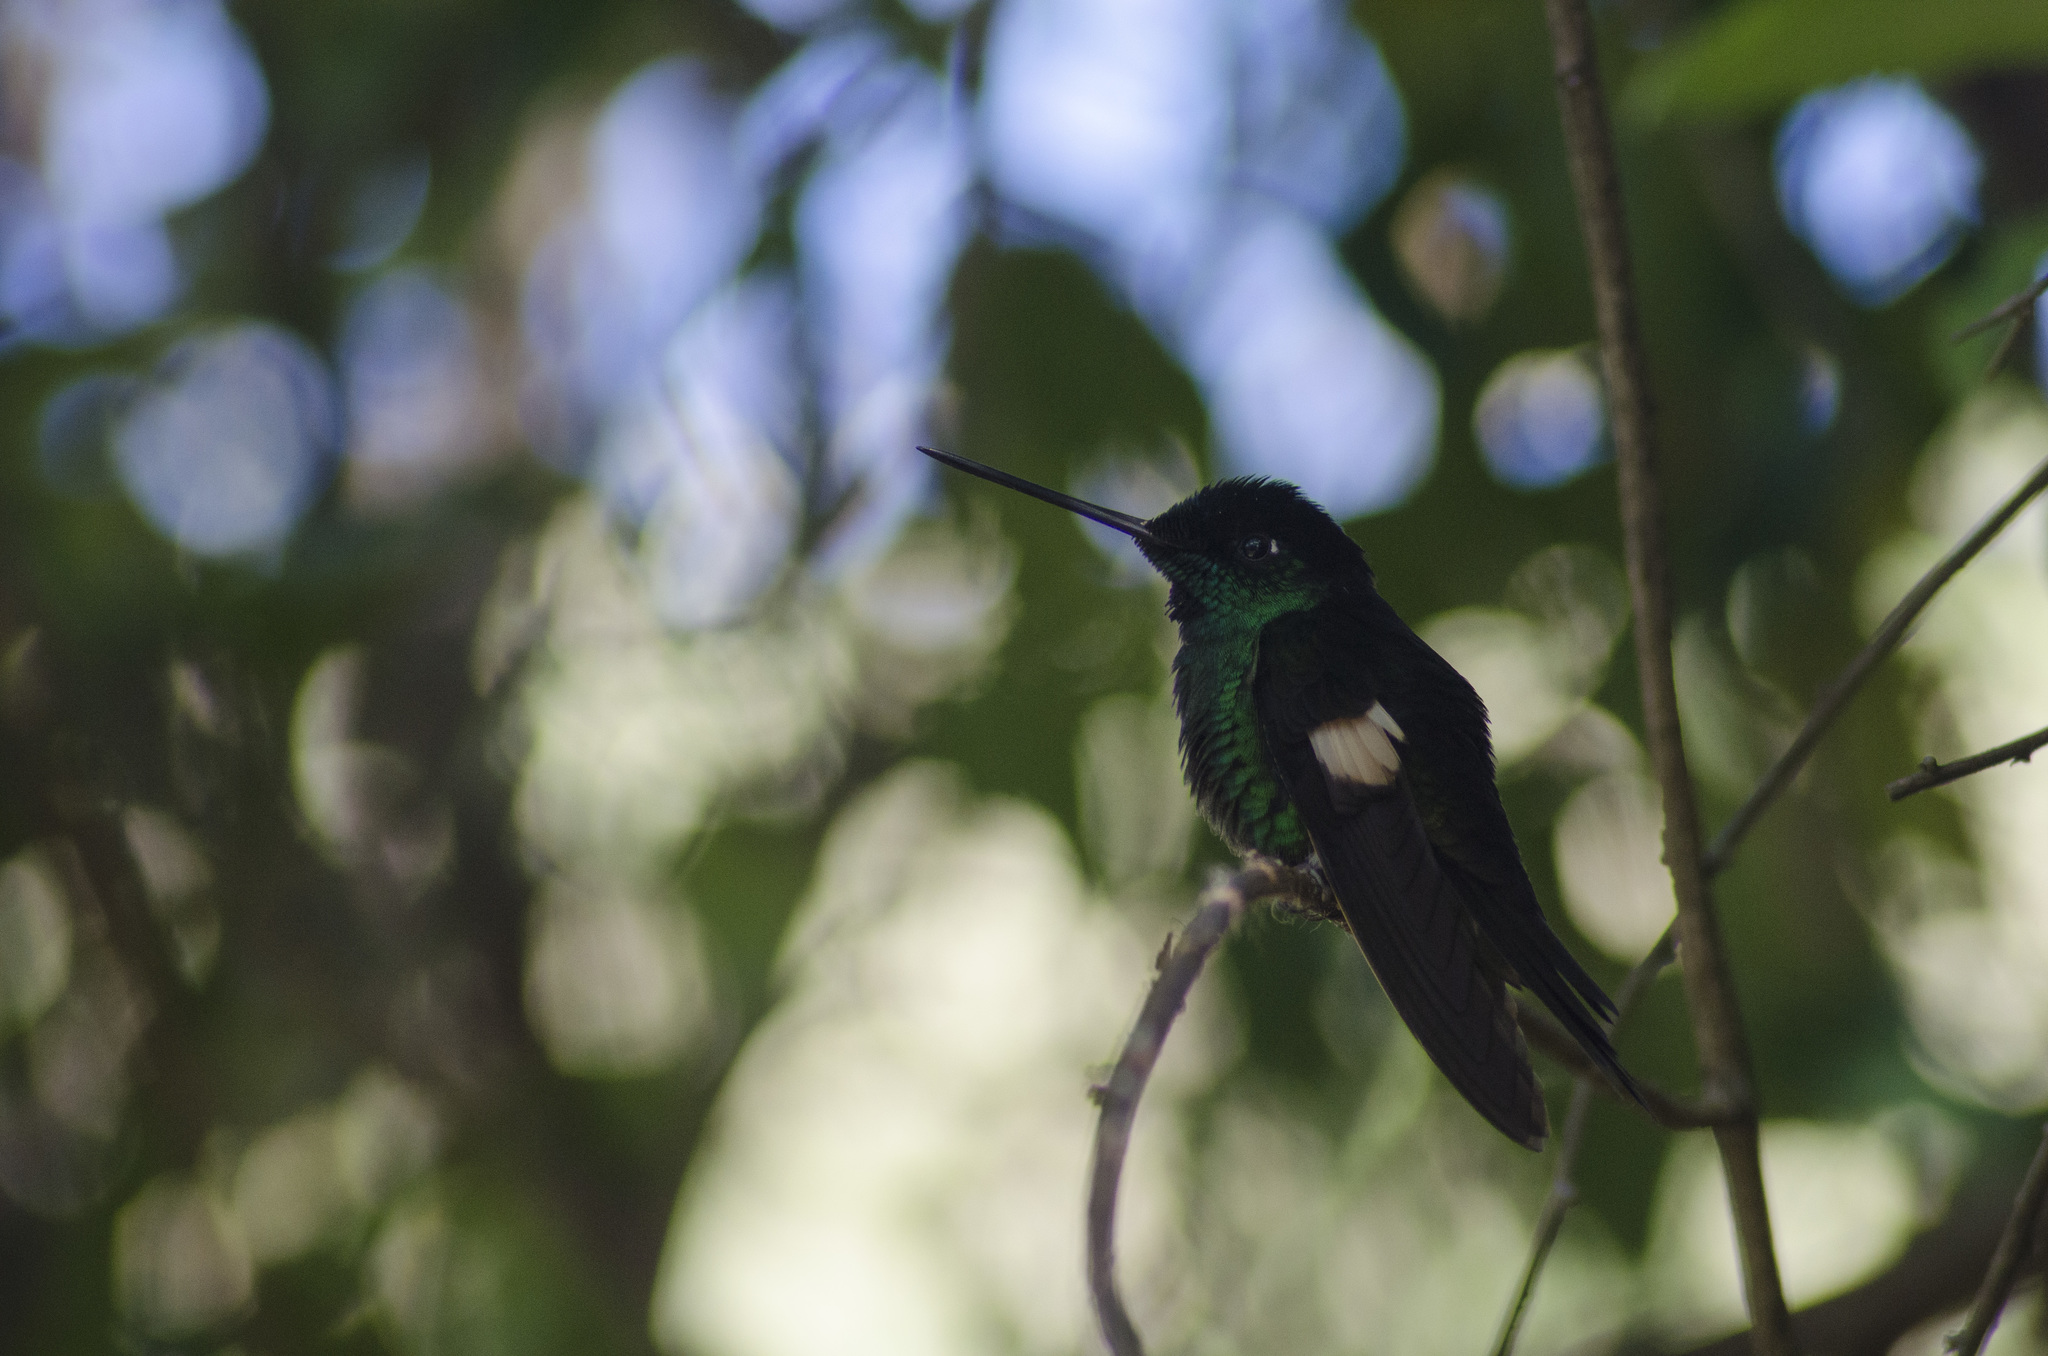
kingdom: Animalia
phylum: Chordata
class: Aves
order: Apodiformes
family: Trochilidae
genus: Coeligena
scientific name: Coeligena lutetiae
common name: Buff-winged starfrontlet
